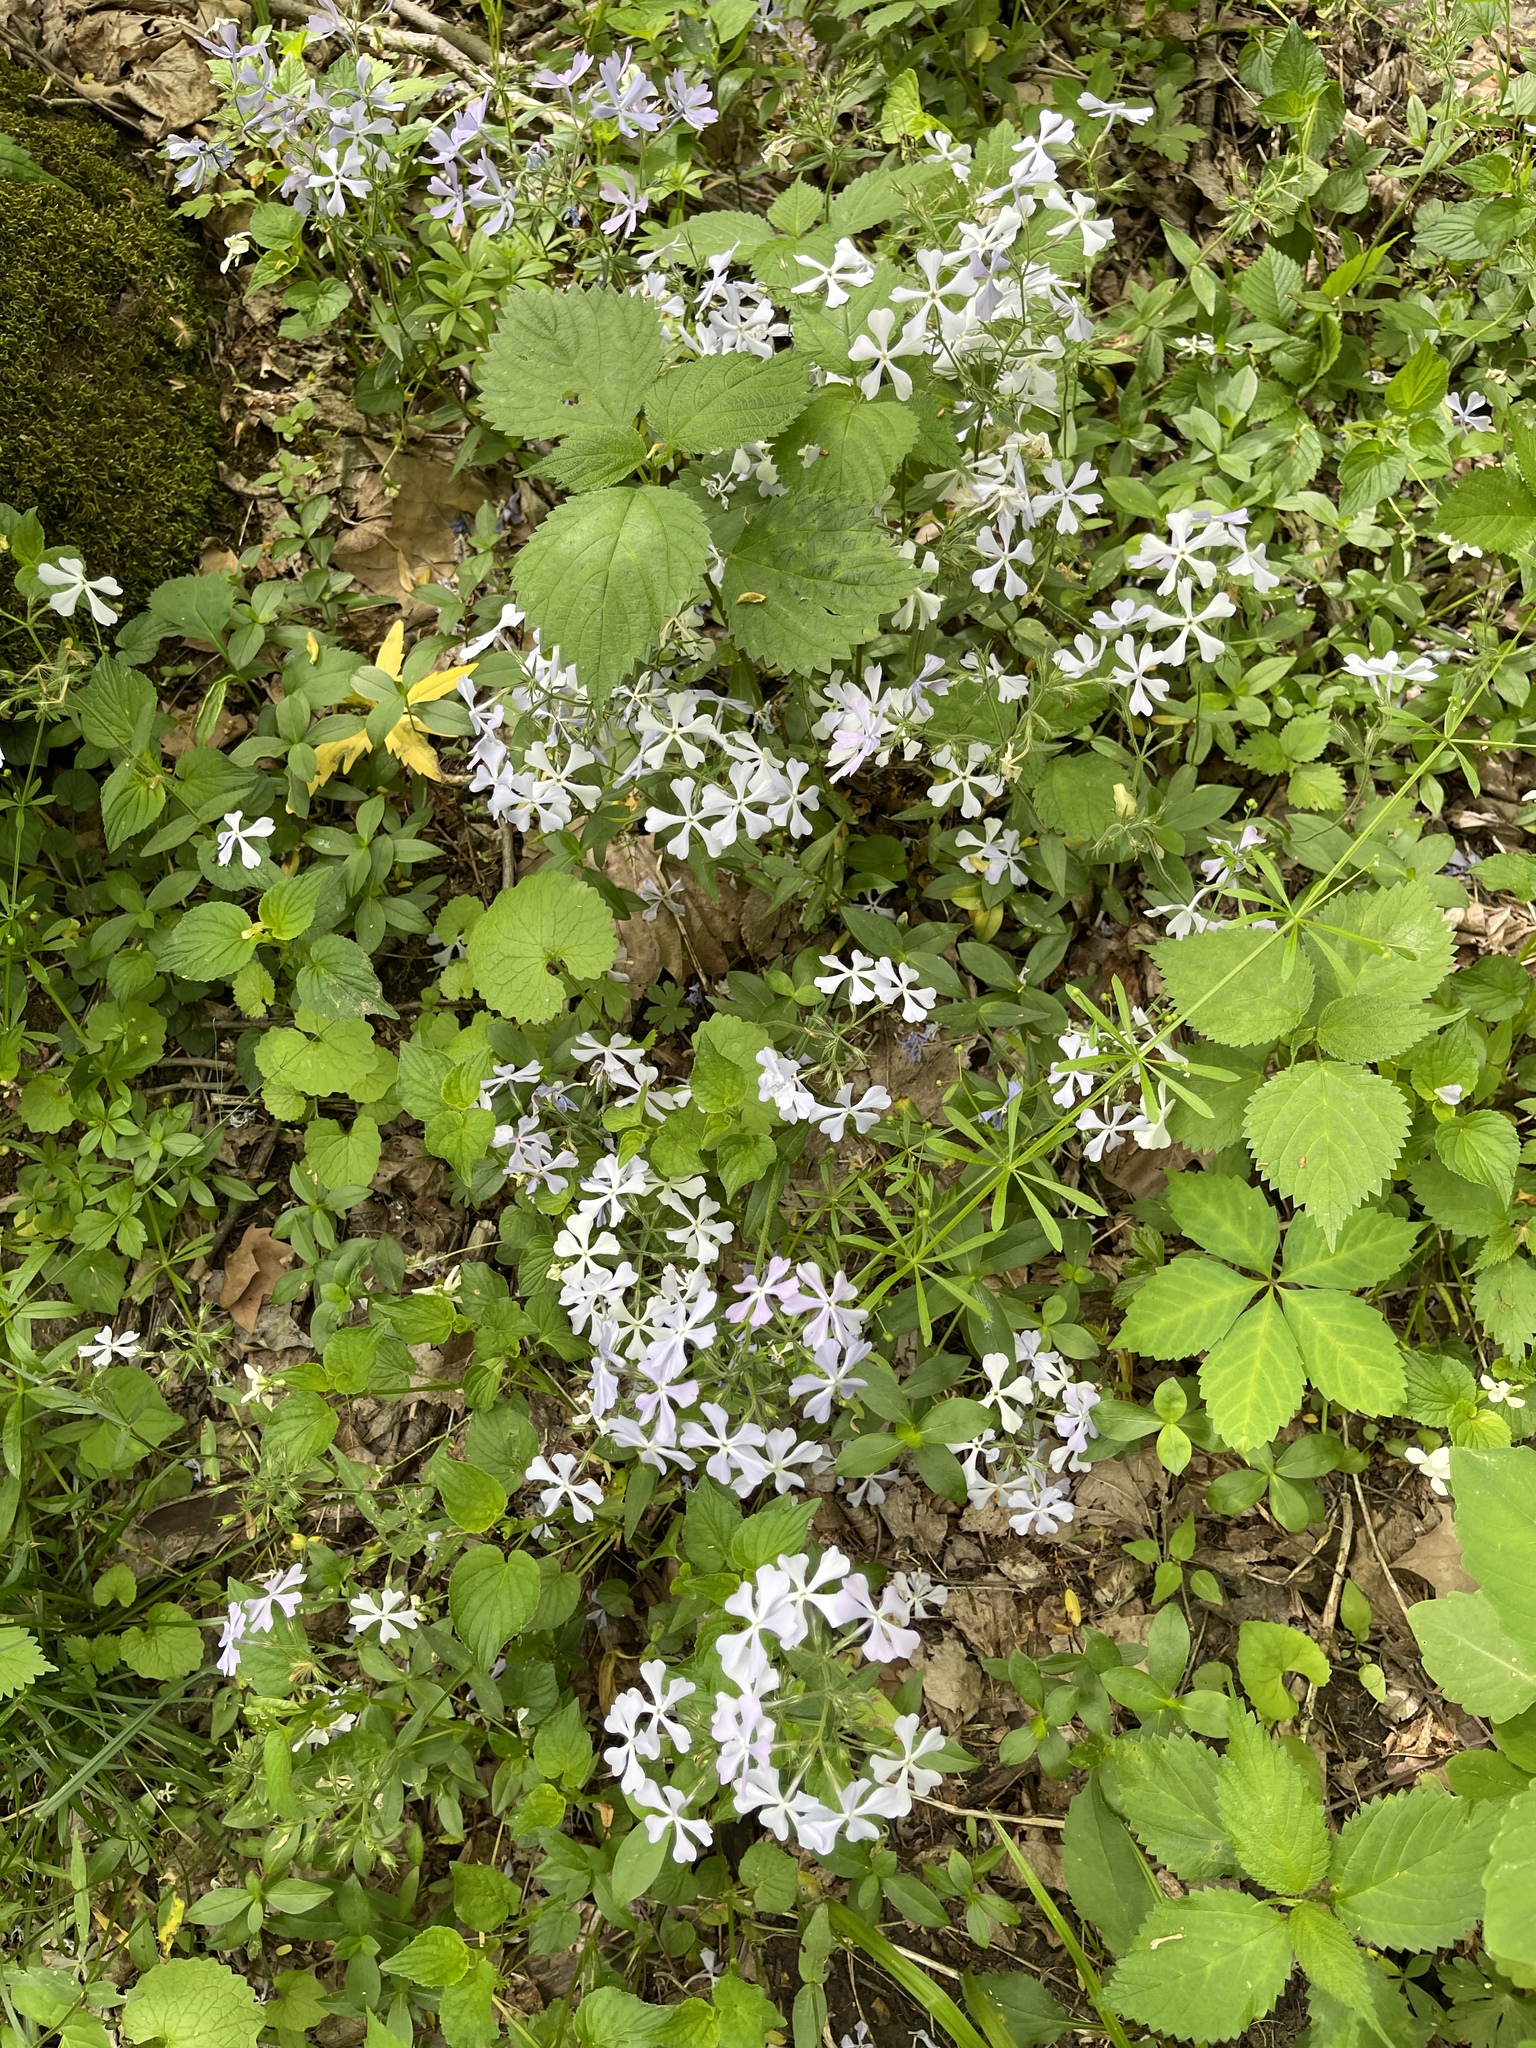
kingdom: Plantae
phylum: Tracheophyta
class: Magnoliopsida
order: Ericales
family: Polemoniaceae
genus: Phlox
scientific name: Phlox divaricata
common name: Blue phlox
